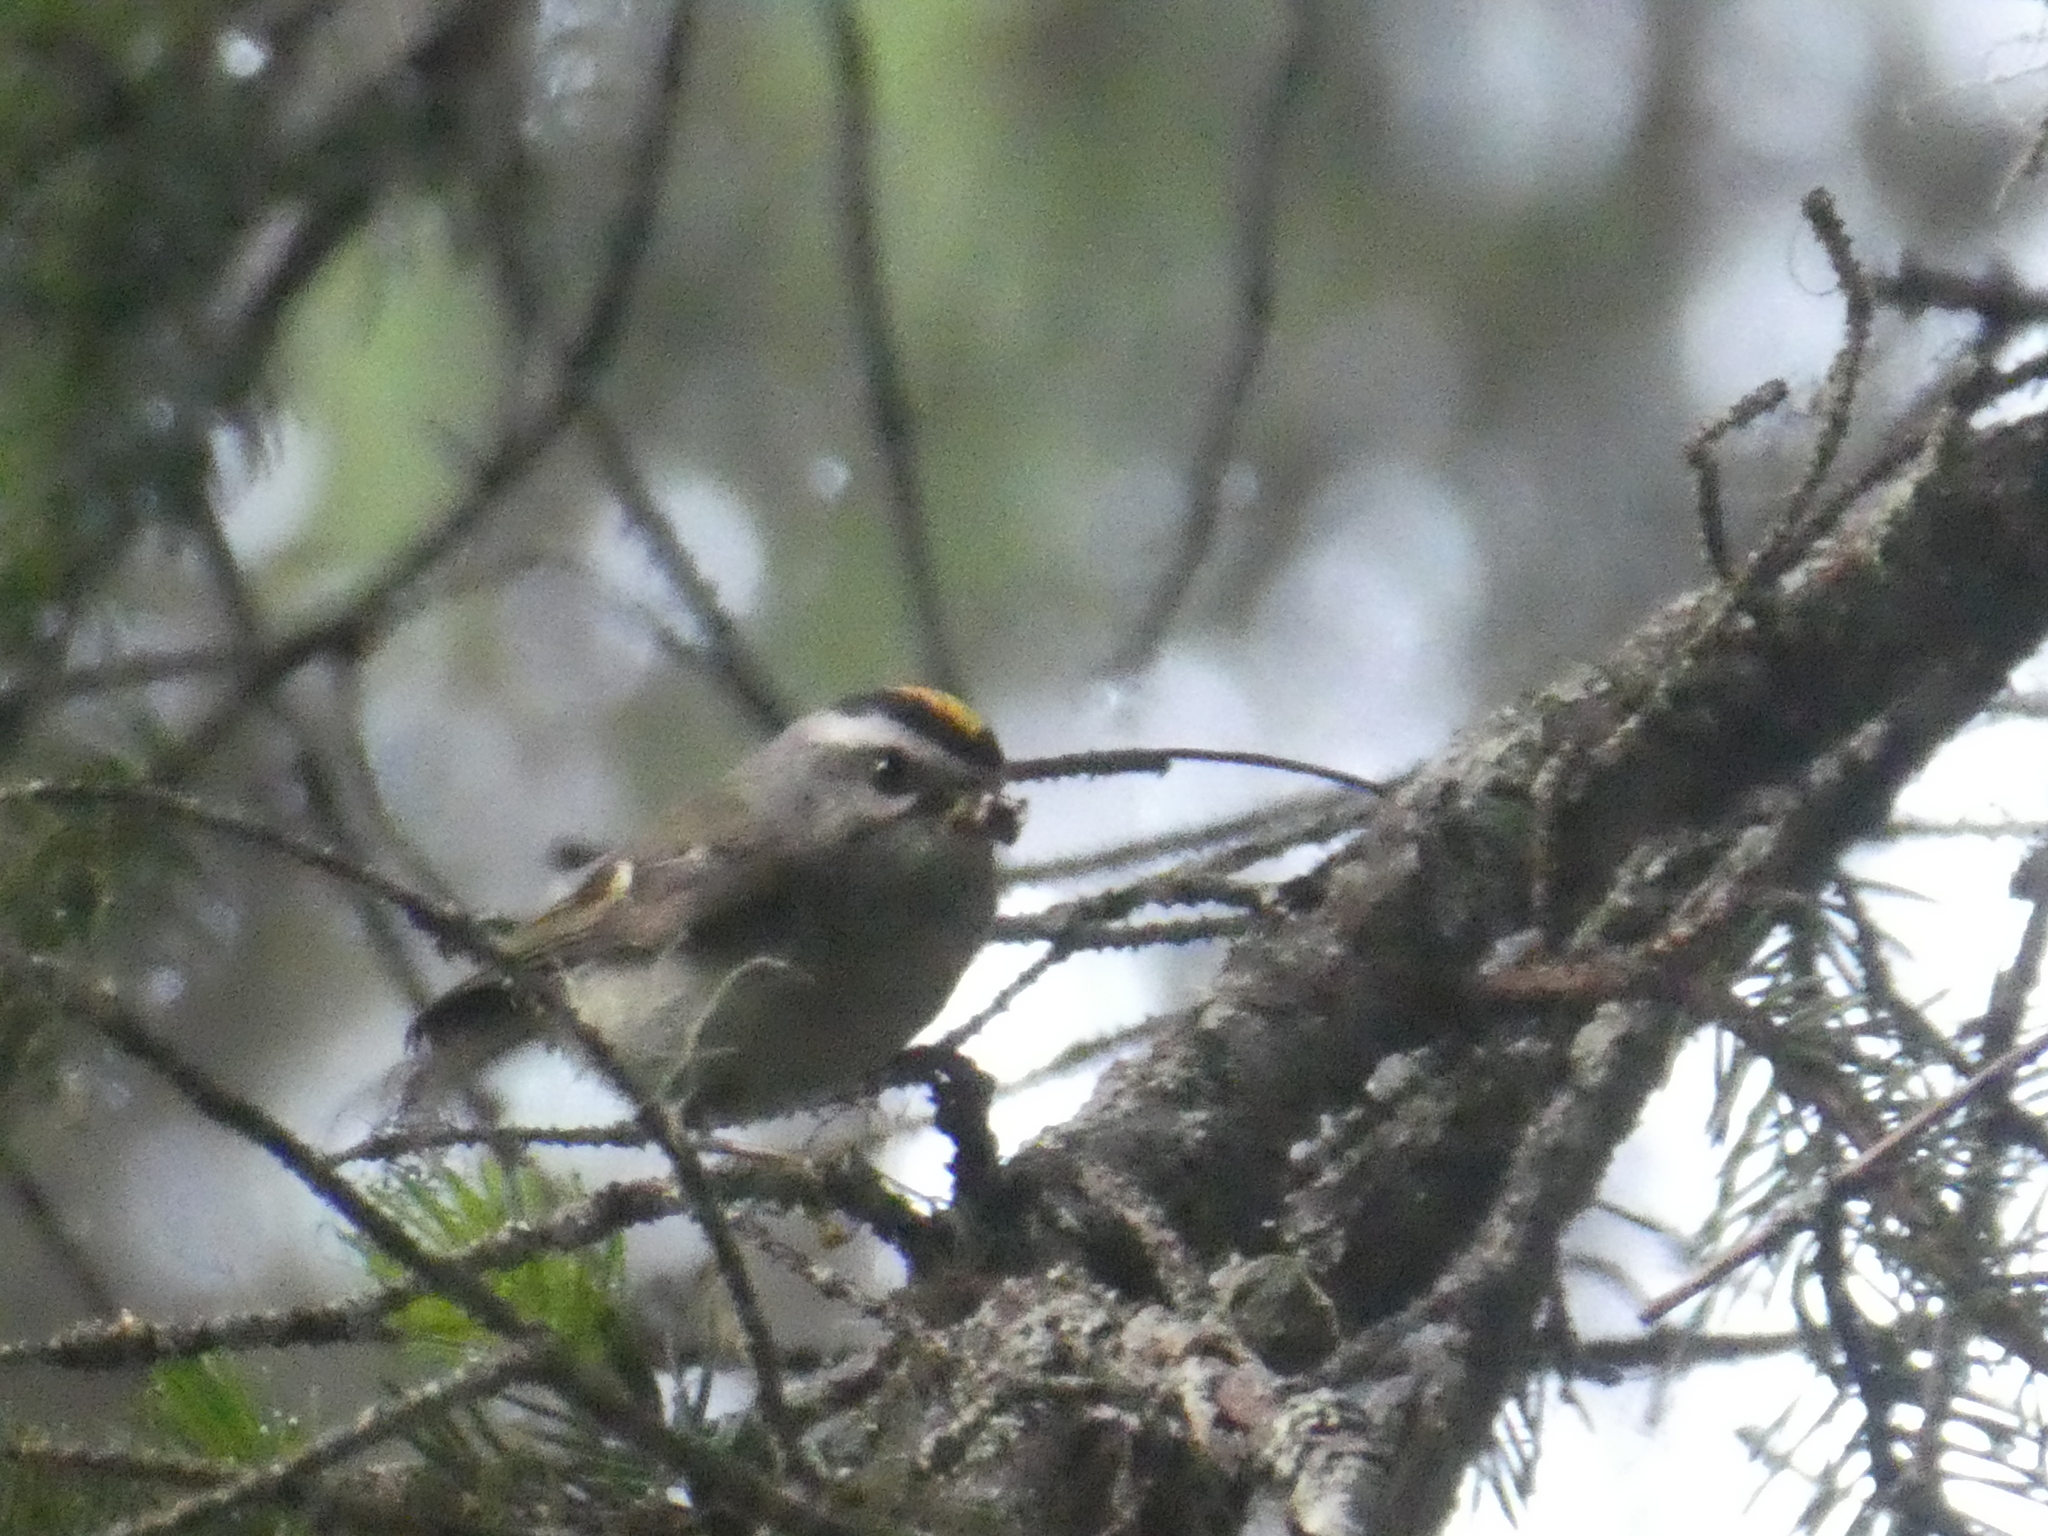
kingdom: Animalia
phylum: Chordata
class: Aves
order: Passeriformes
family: Regulidae
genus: Regulus
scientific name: Regulus satrapa
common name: Golden-crowned kinglet
